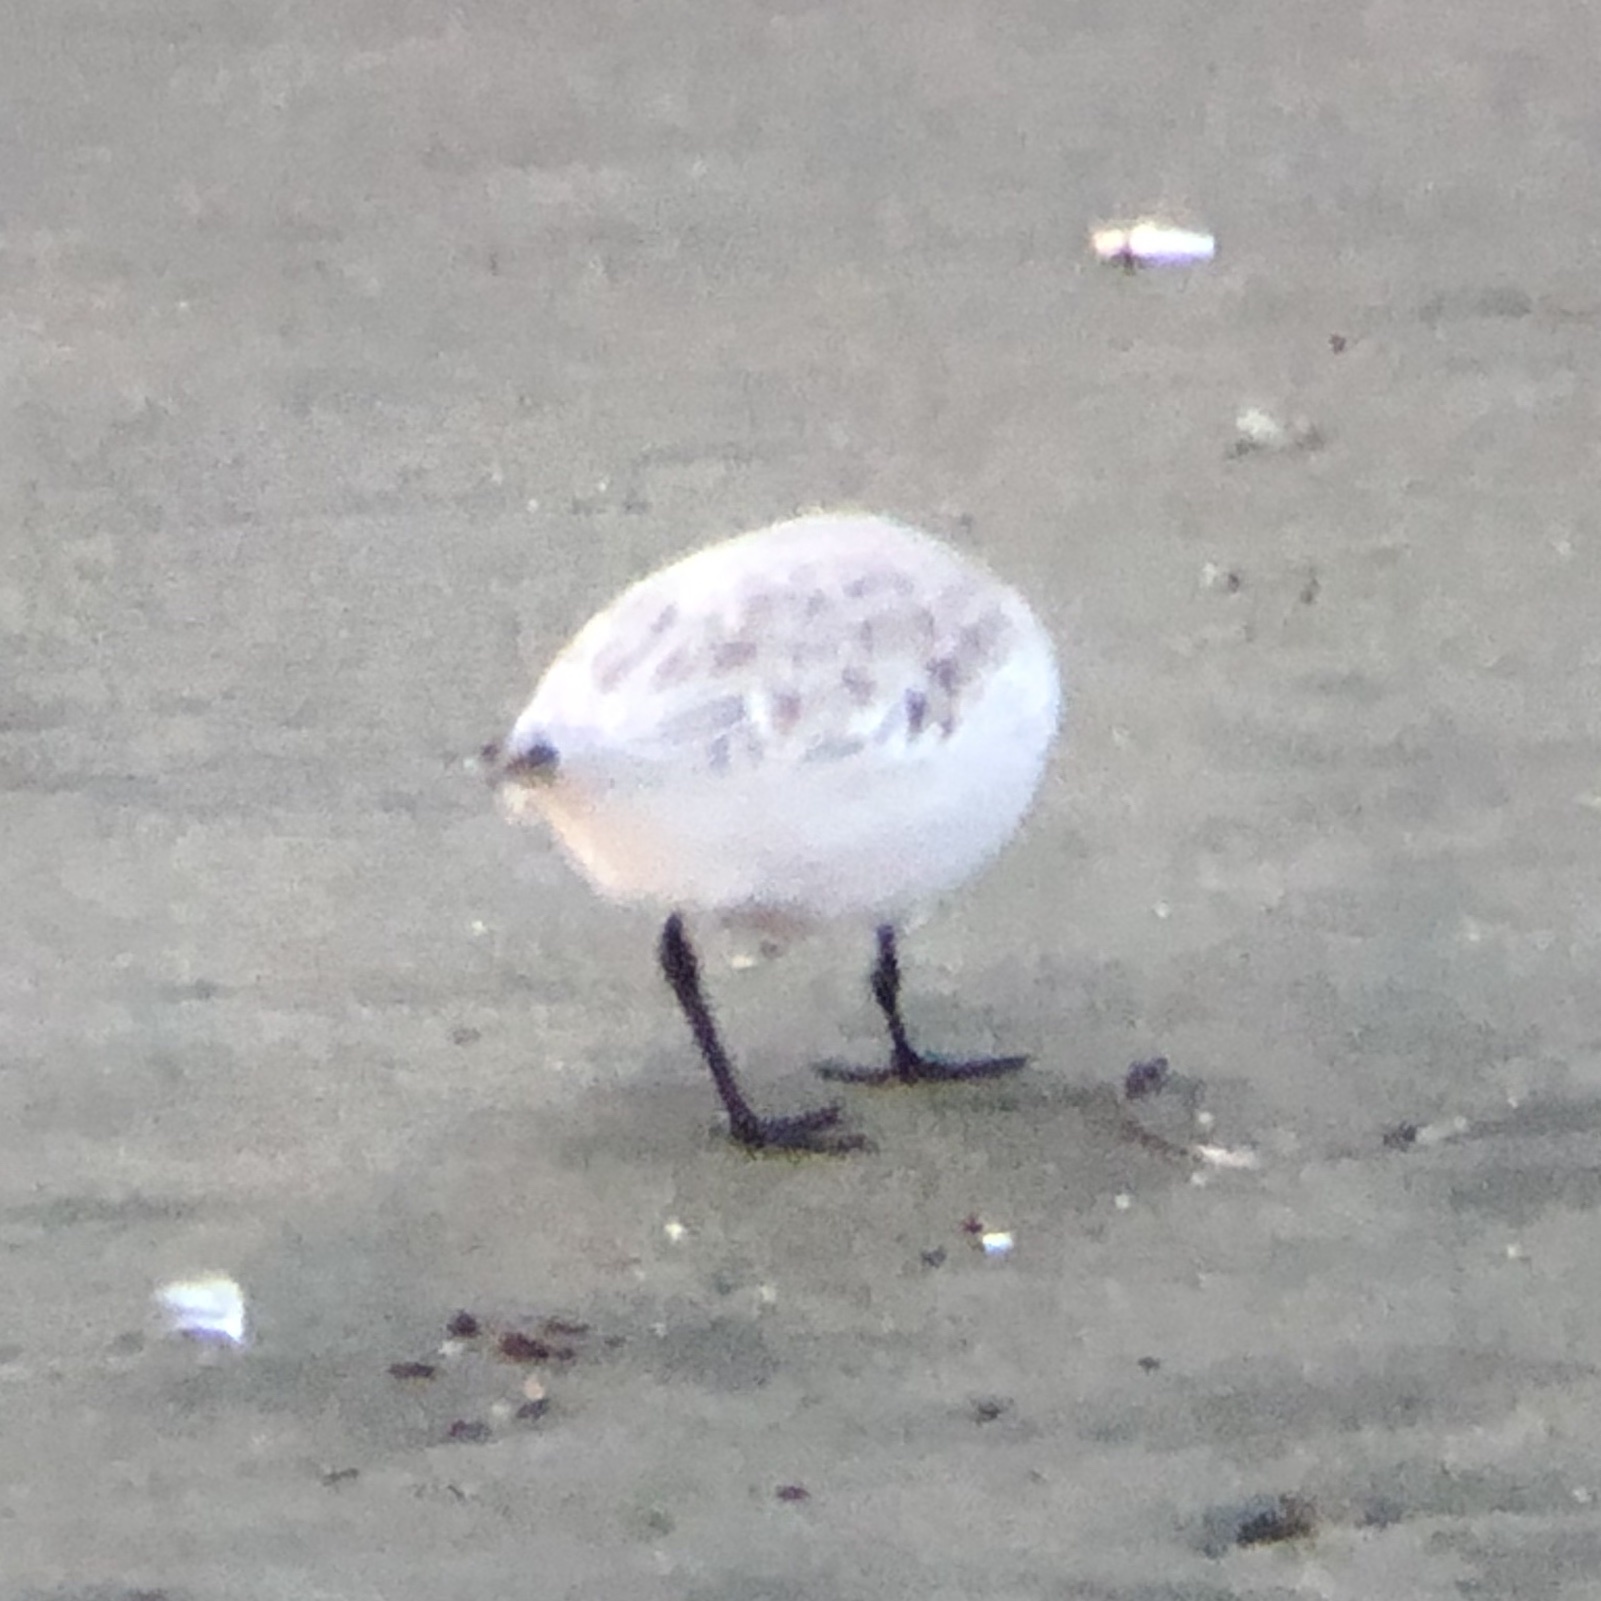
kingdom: Animalia
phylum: Chordata
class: Aves
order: Charadriiformes
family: Scolopacidae
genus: Calidris
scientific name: Calidris alba
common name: Sanderling
